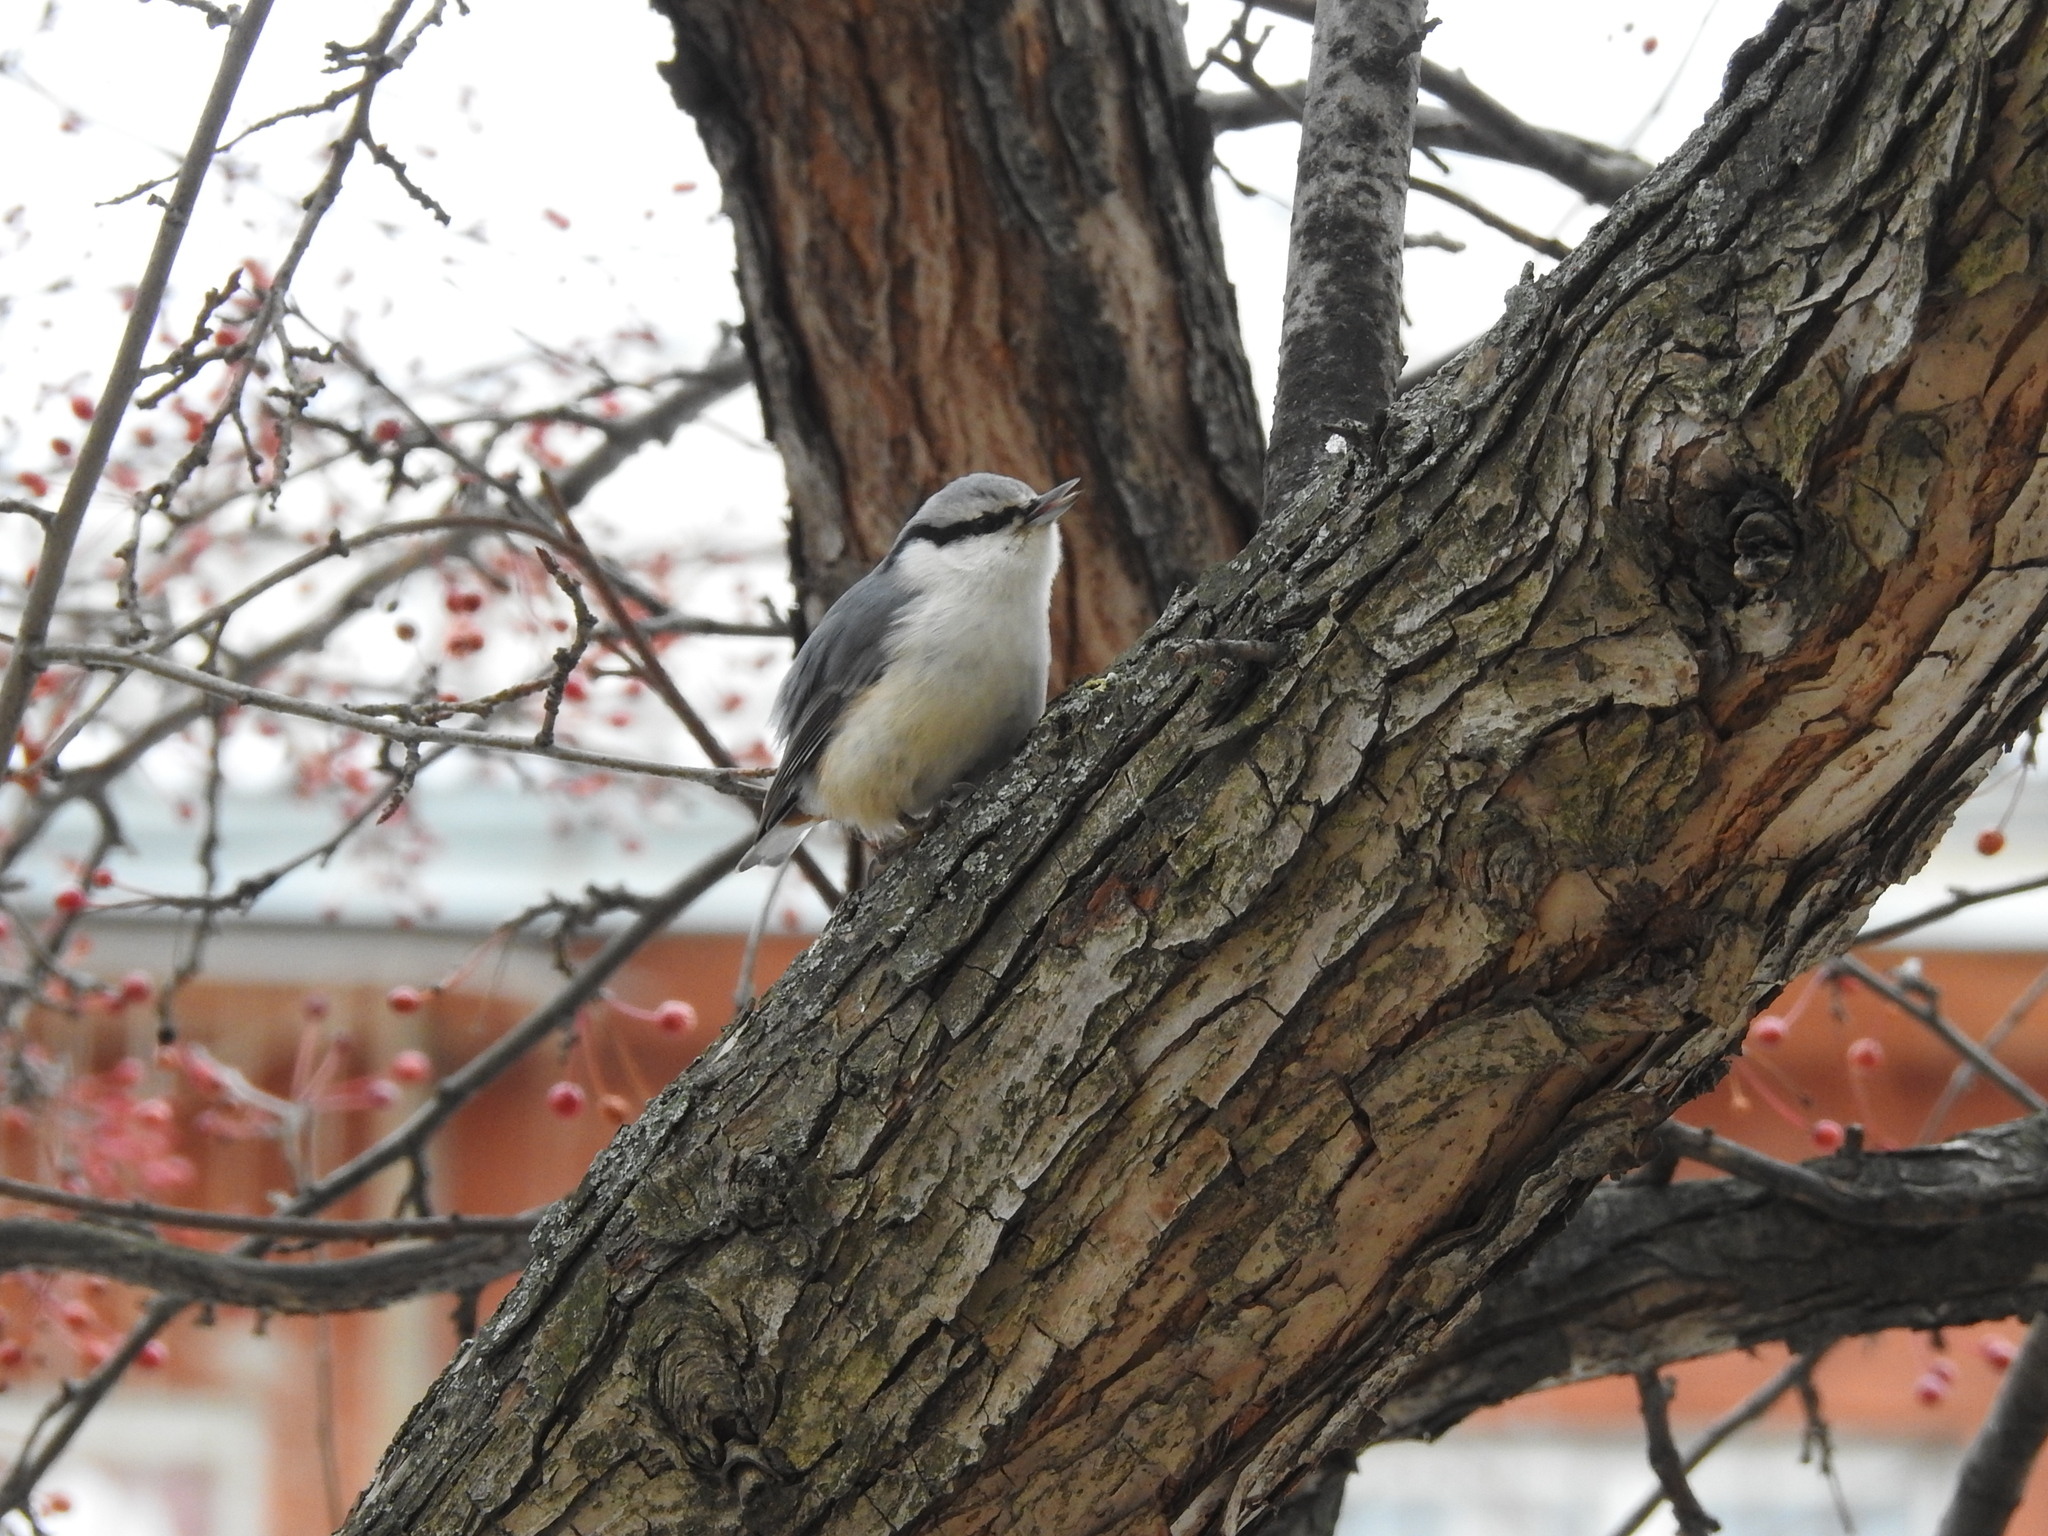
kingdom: Animalia
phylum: Chordata
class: Aves
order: Passeriformes
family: Sittidae
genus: Sitta
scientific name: Sitta europaea
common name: Eurasian nuthatch
